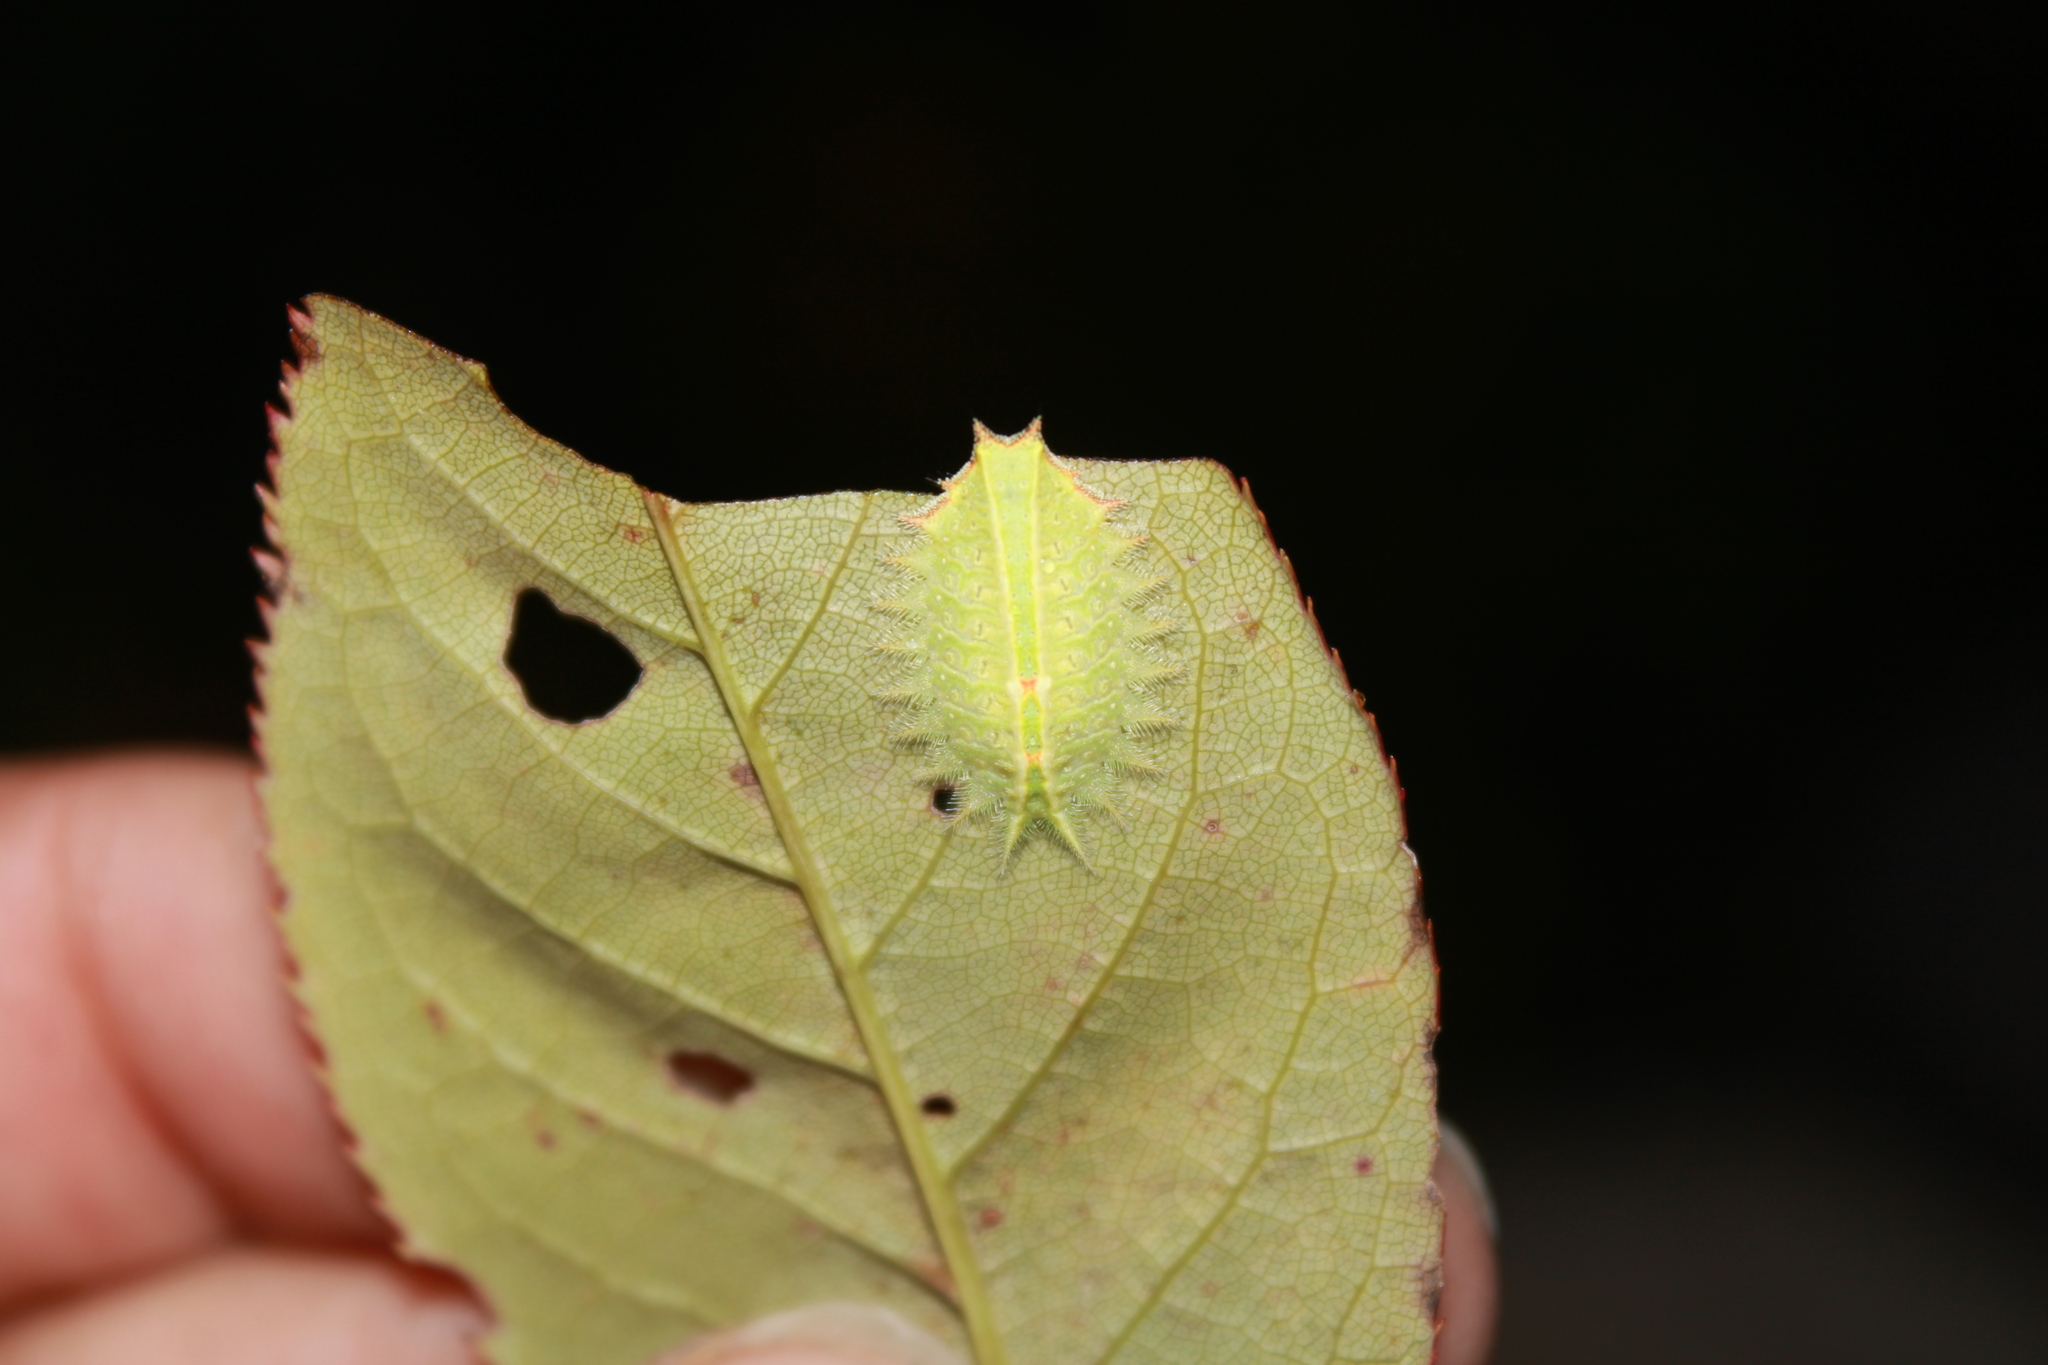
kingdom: Animalia
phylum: Arthropoda
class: Insecta
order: Lepidoptera
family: Limacodidae
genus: Isa
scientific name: Isa textula
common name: Crowned slug moth
